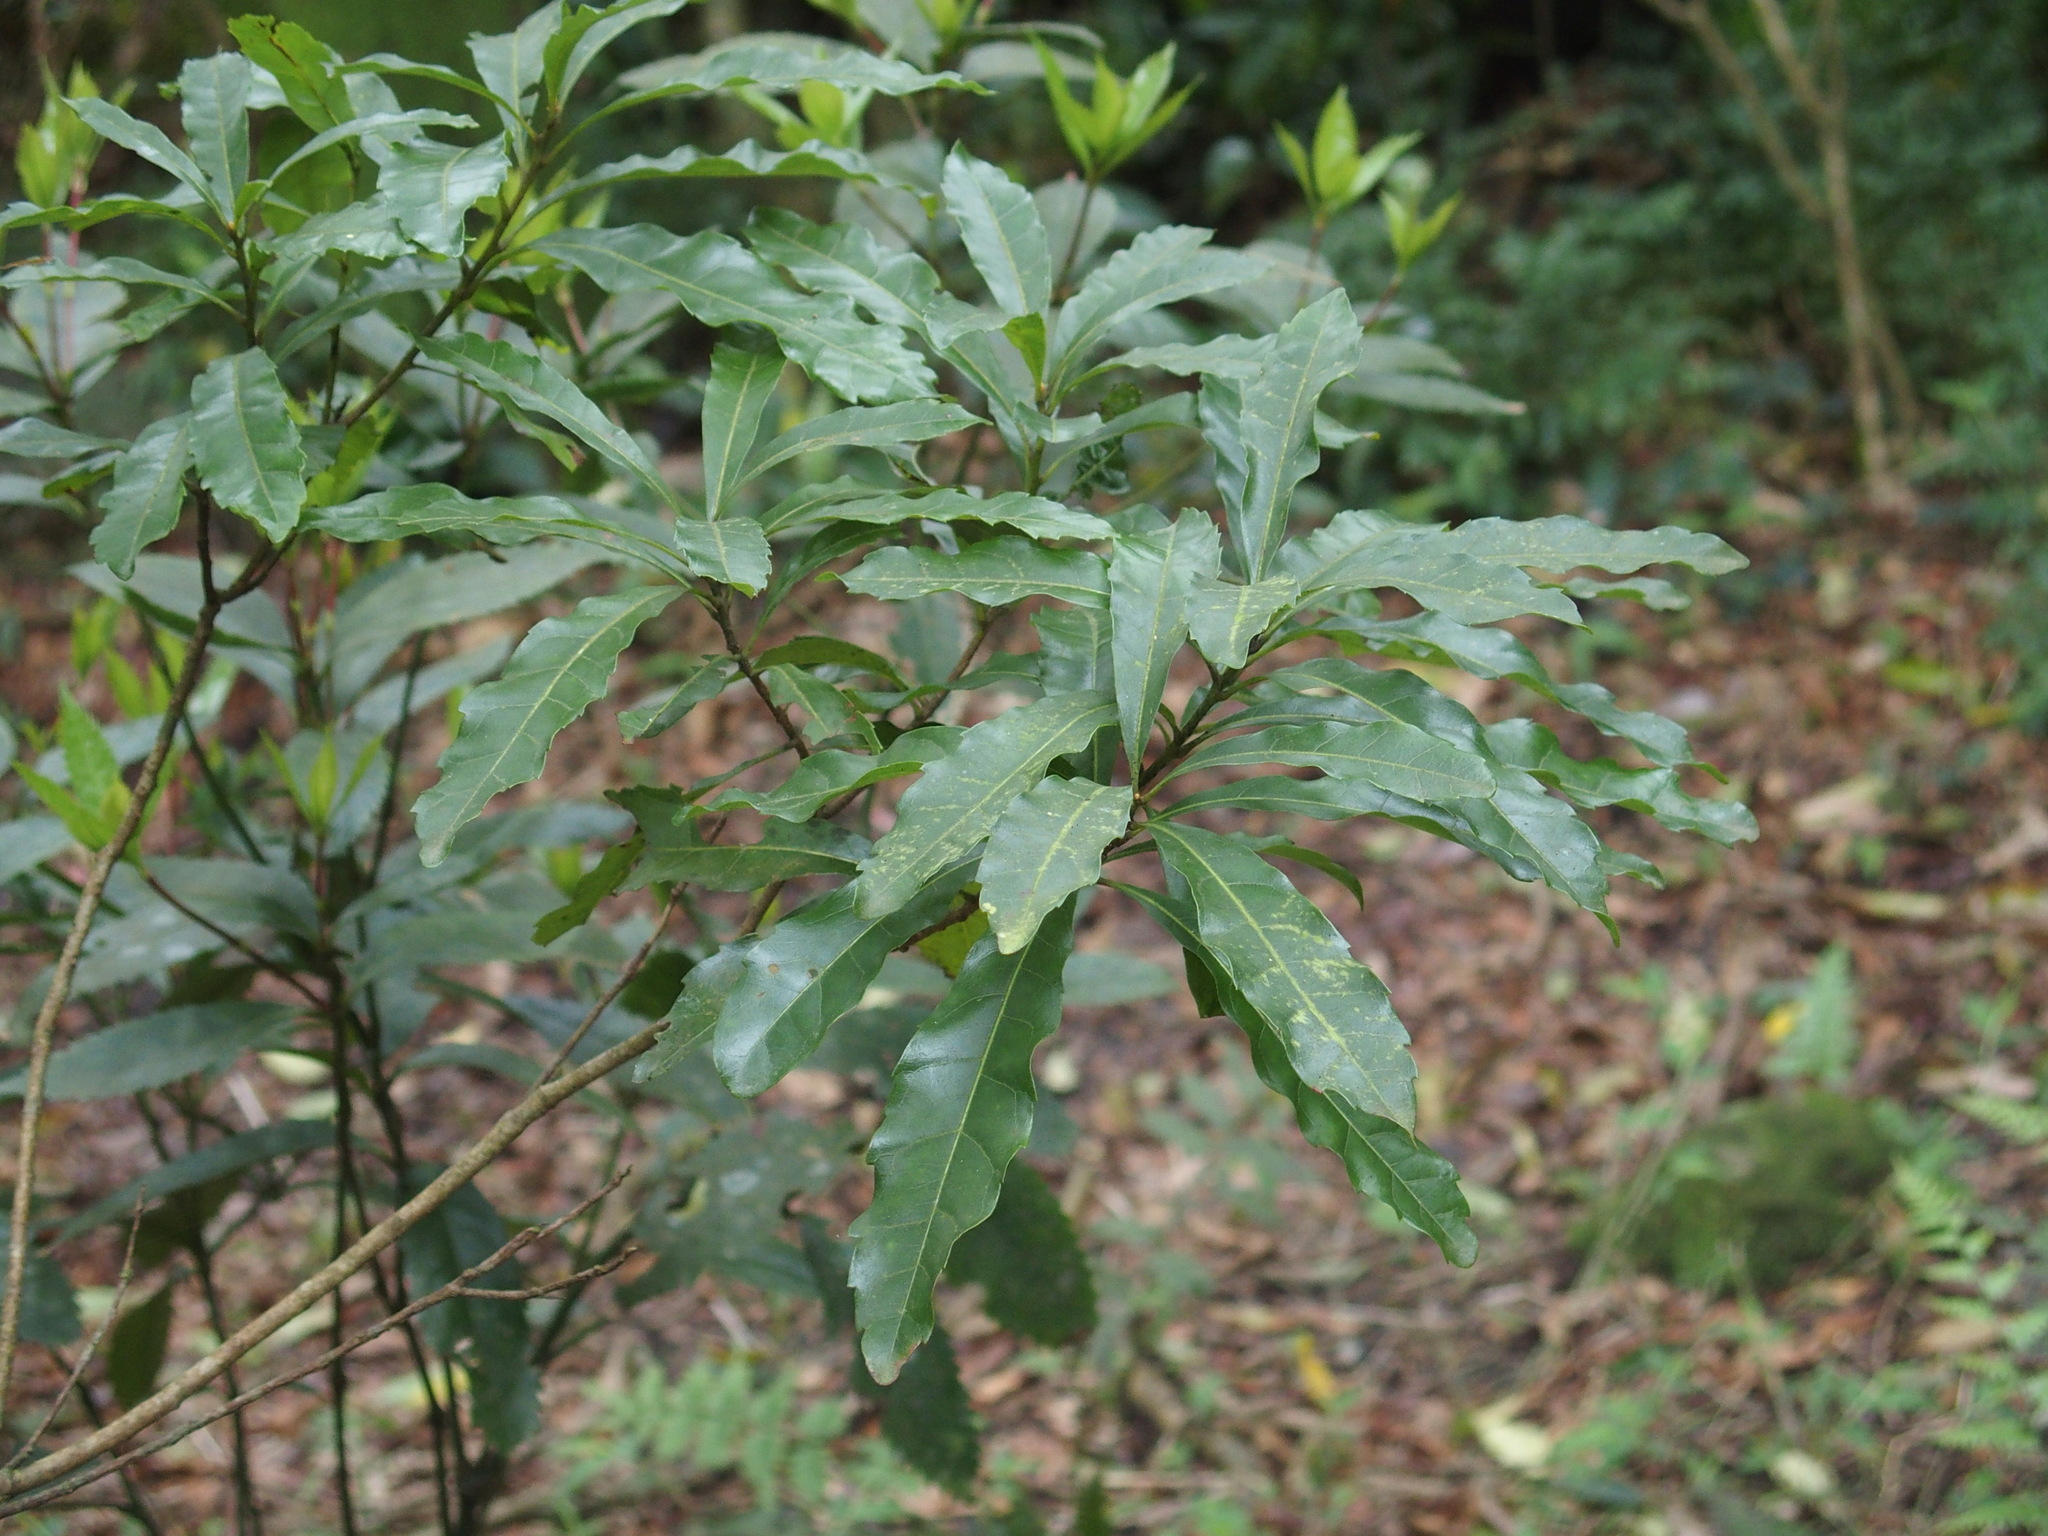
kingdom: Plantae
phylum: Tracheophyta
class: Magnoliopsida
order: Fagales
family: Myricaceae
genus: Morella
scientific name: Morella rubra
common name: Red bayberry
